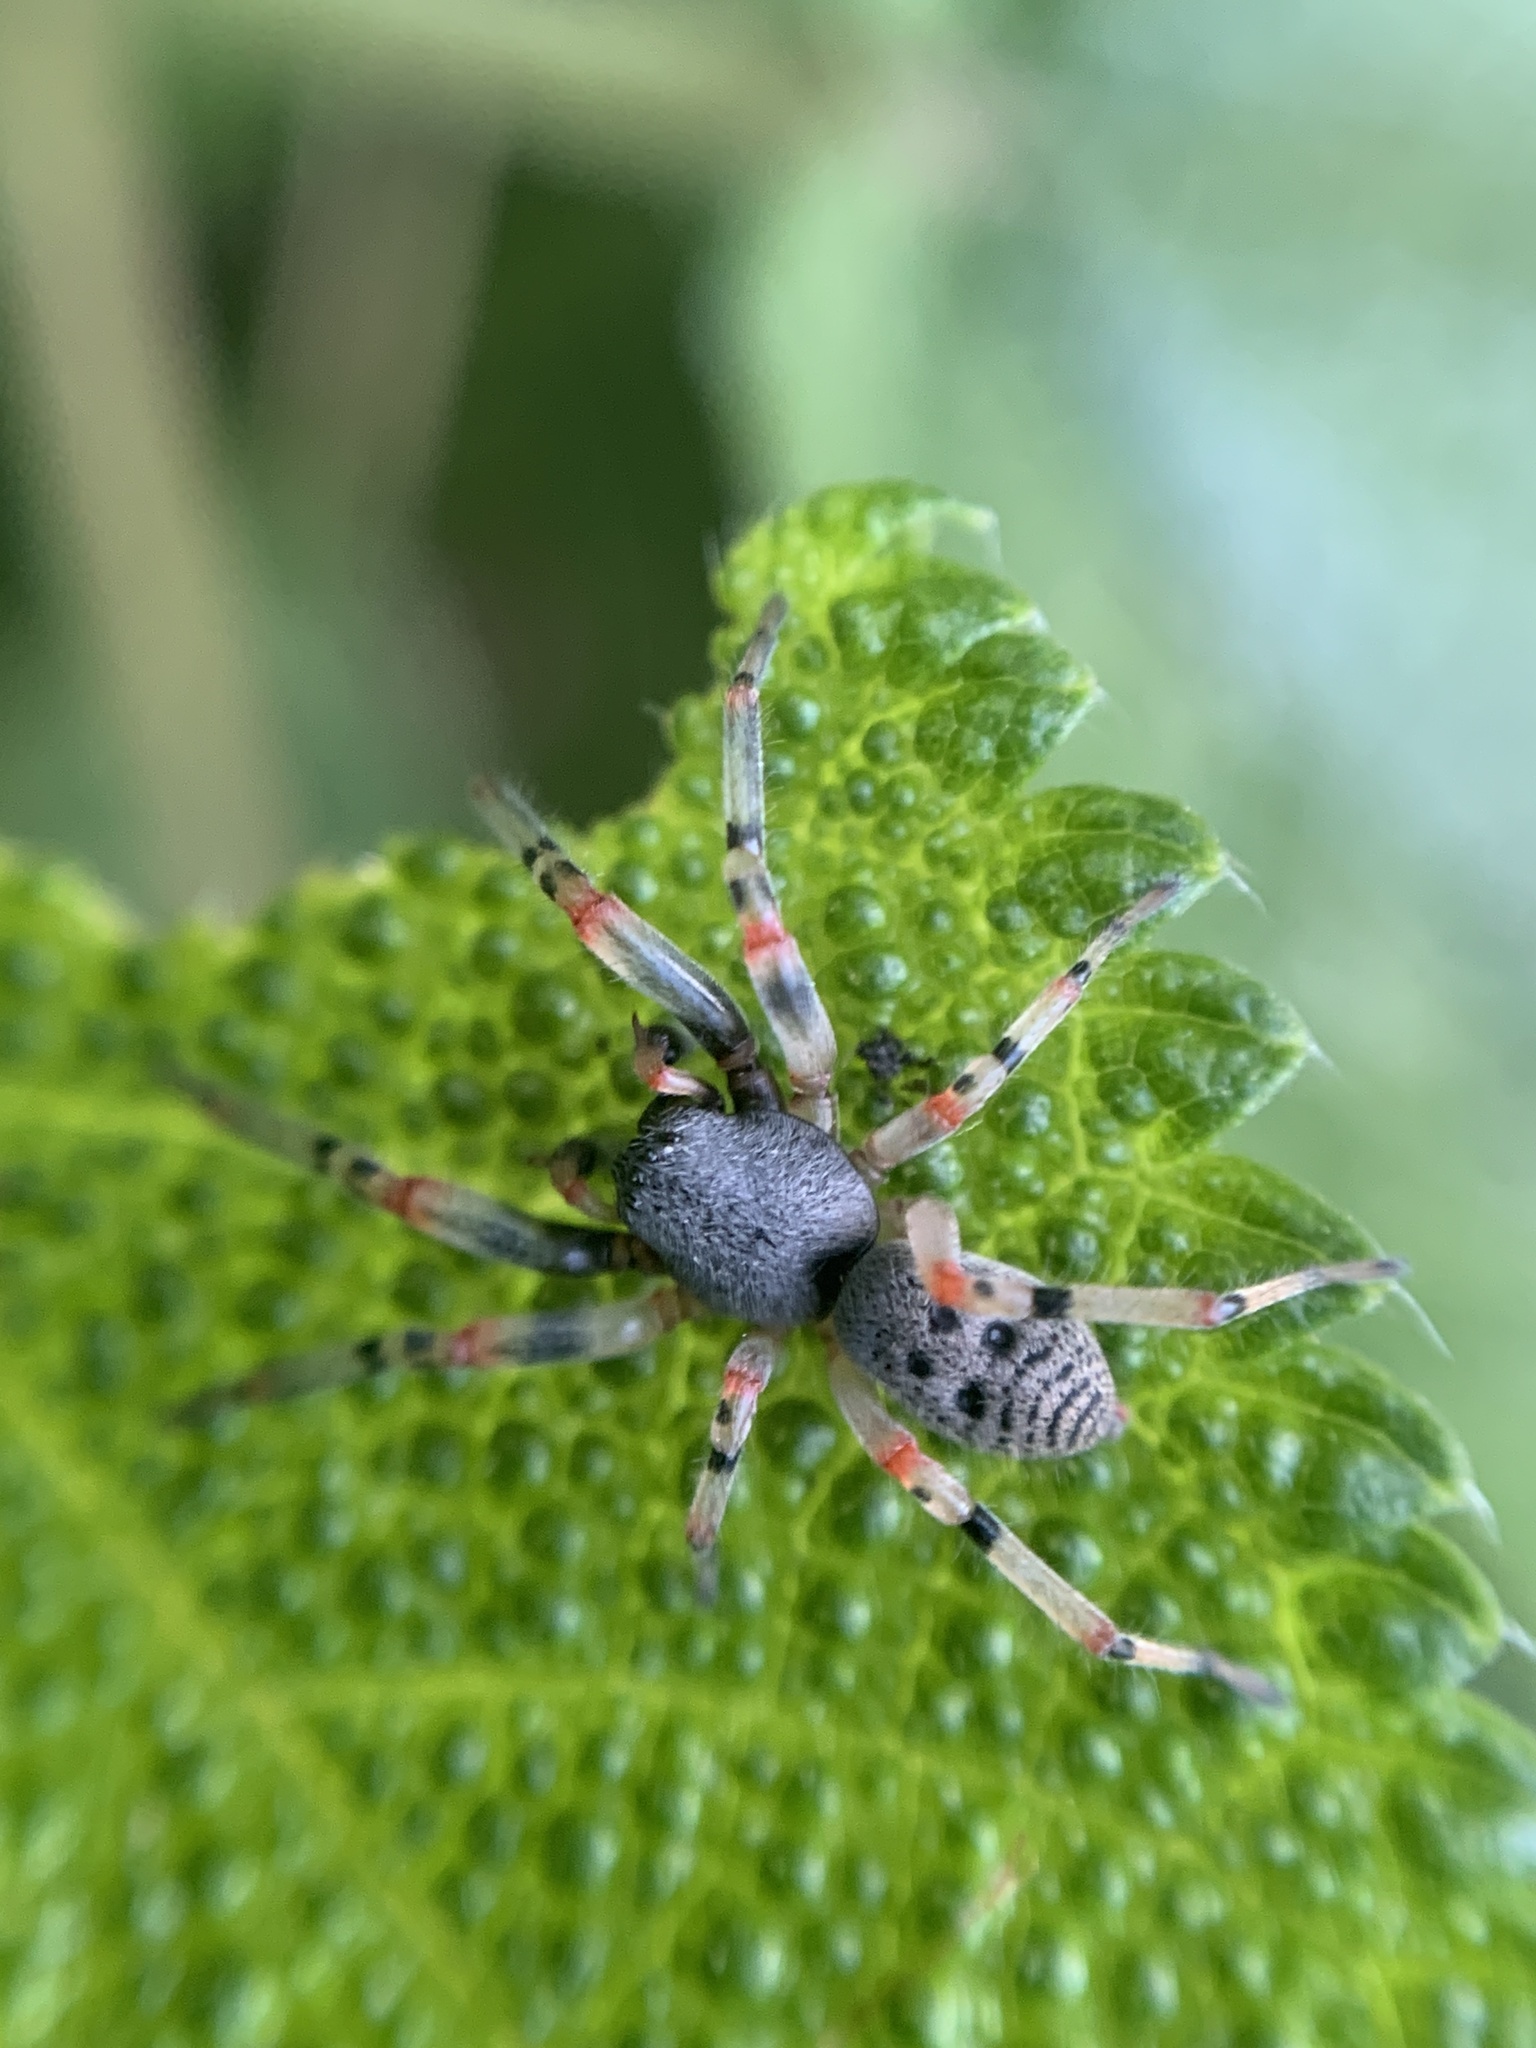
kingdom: Animalia
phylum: Arthropoda
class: Arachnida
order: Araneae
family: Trachelidae
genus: Trachelopachys
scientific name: Trachelopachys
